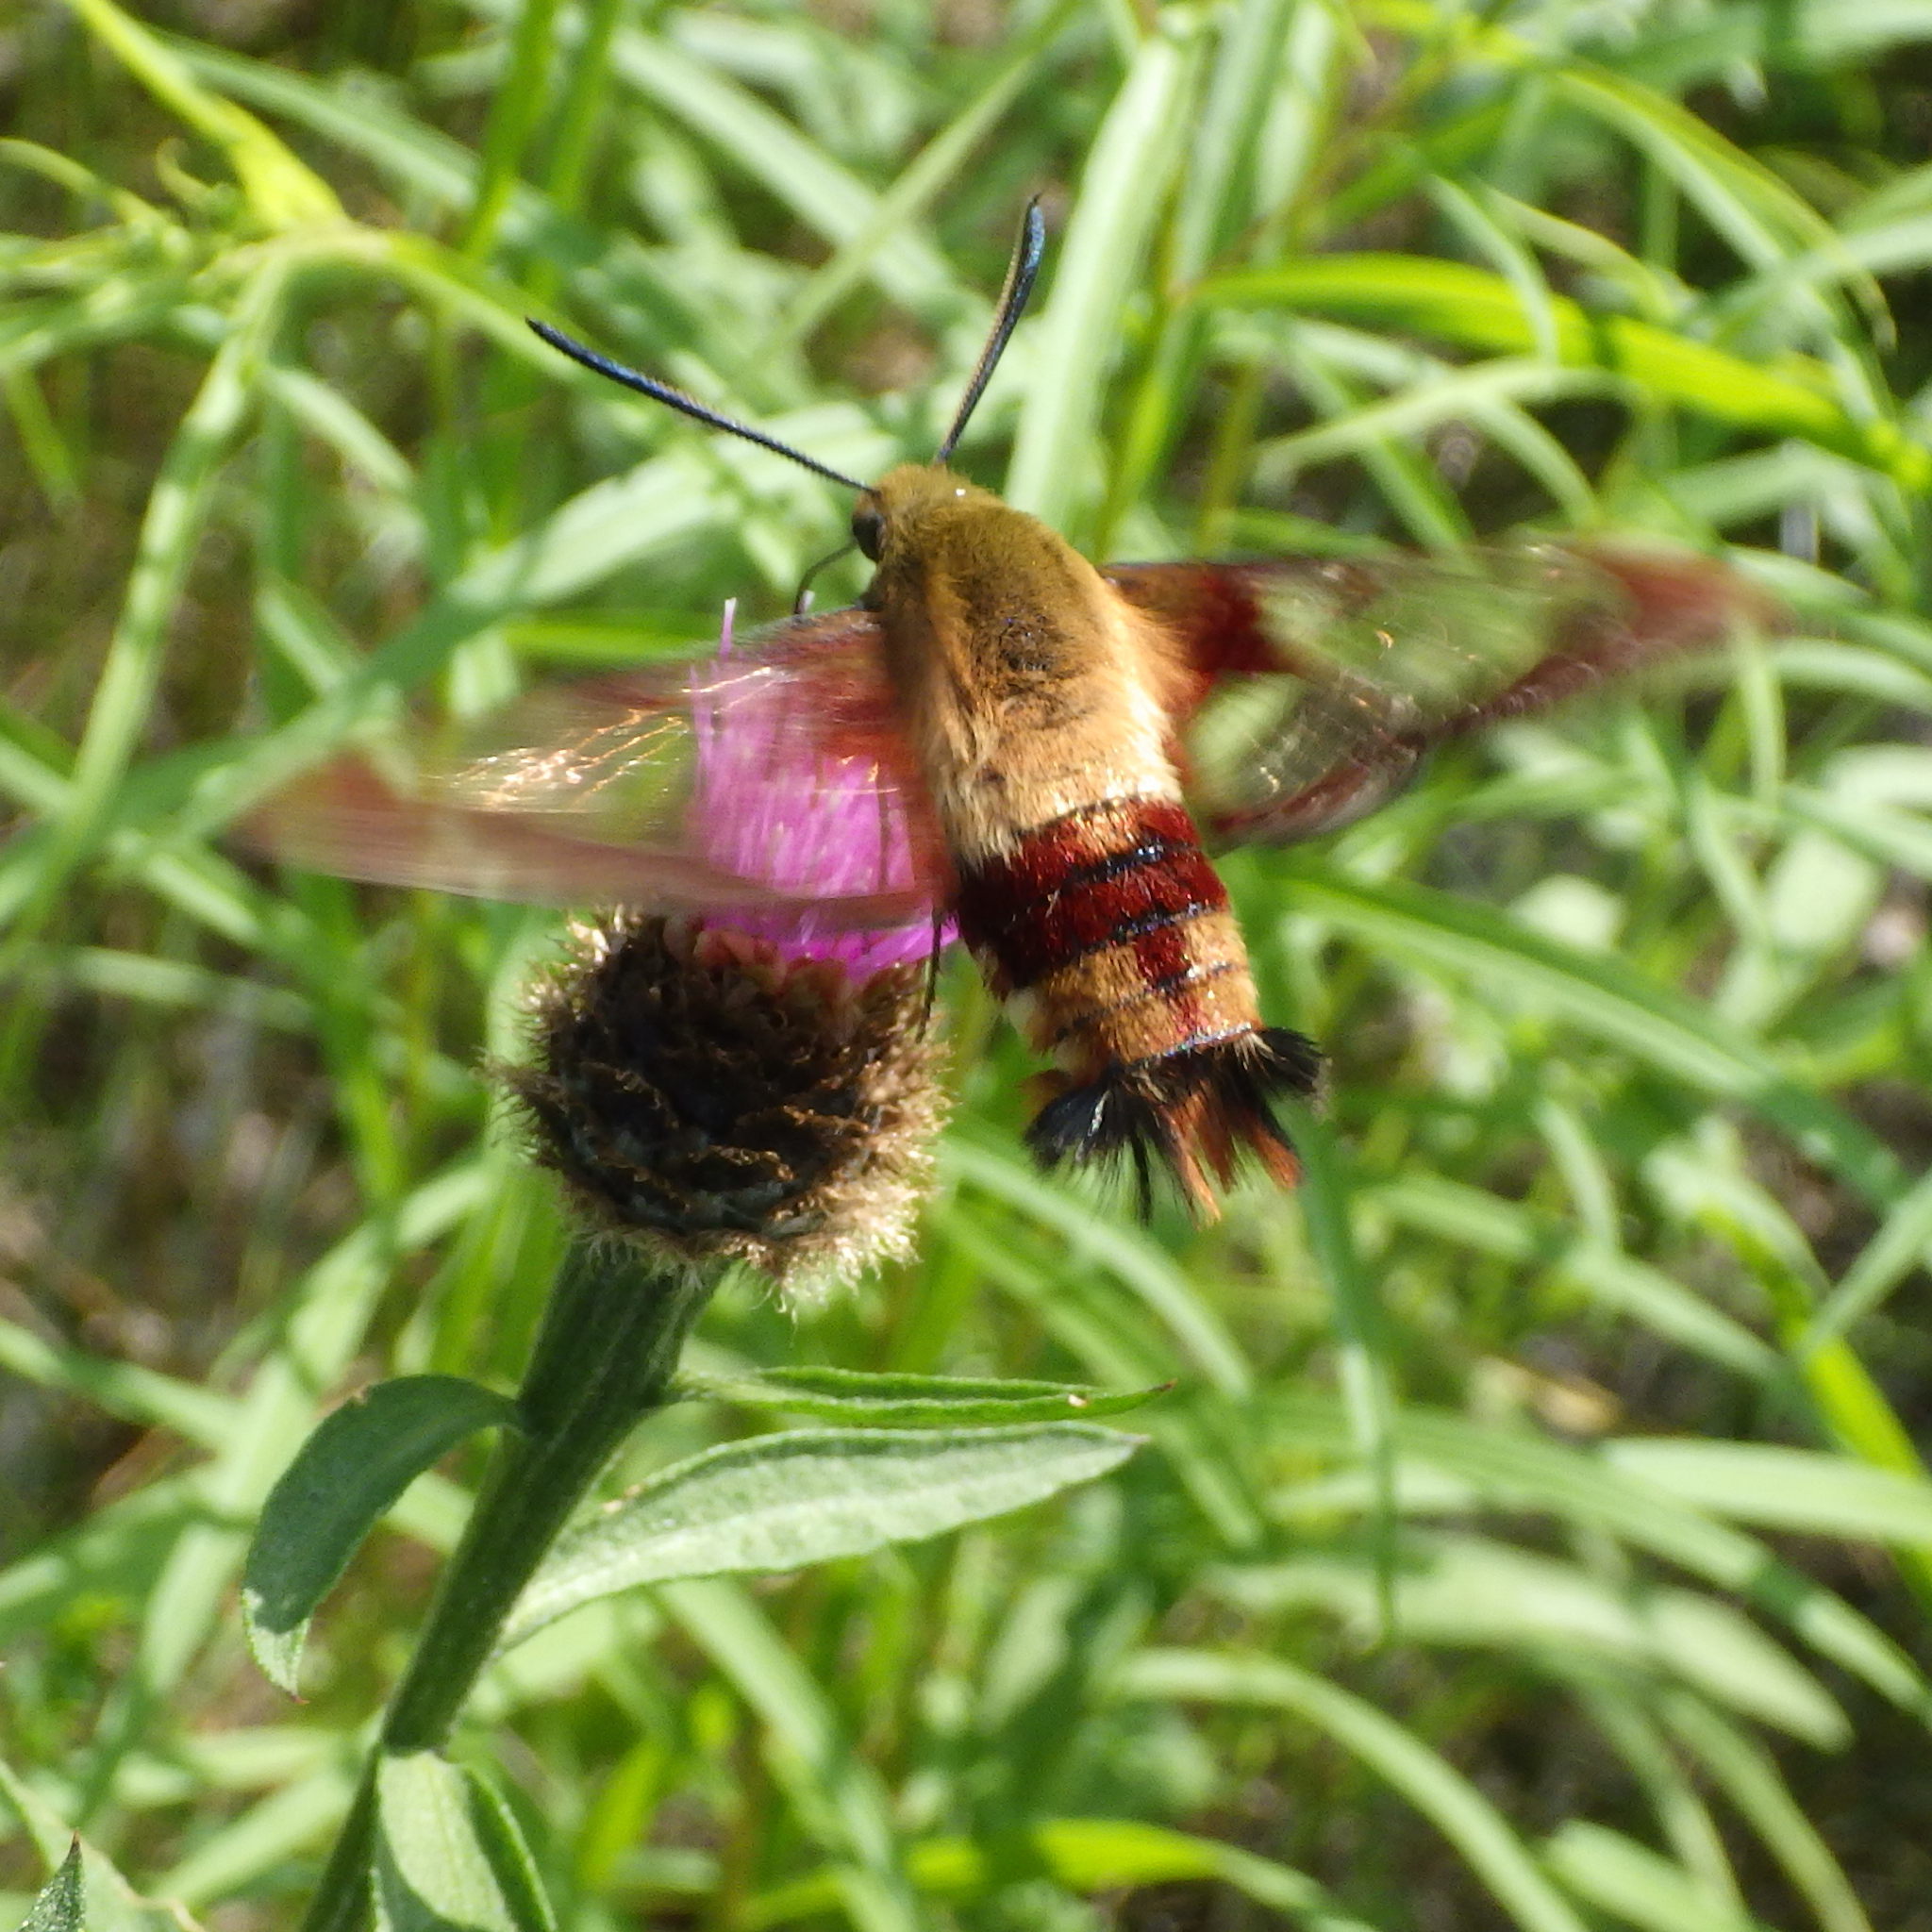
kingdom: Animalia
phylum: Arthropoda
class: Insecta
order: Lepidoptera
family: Sphingidae
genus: Hemaris
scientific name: Hemaris thysbe
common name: Common clear-wing
